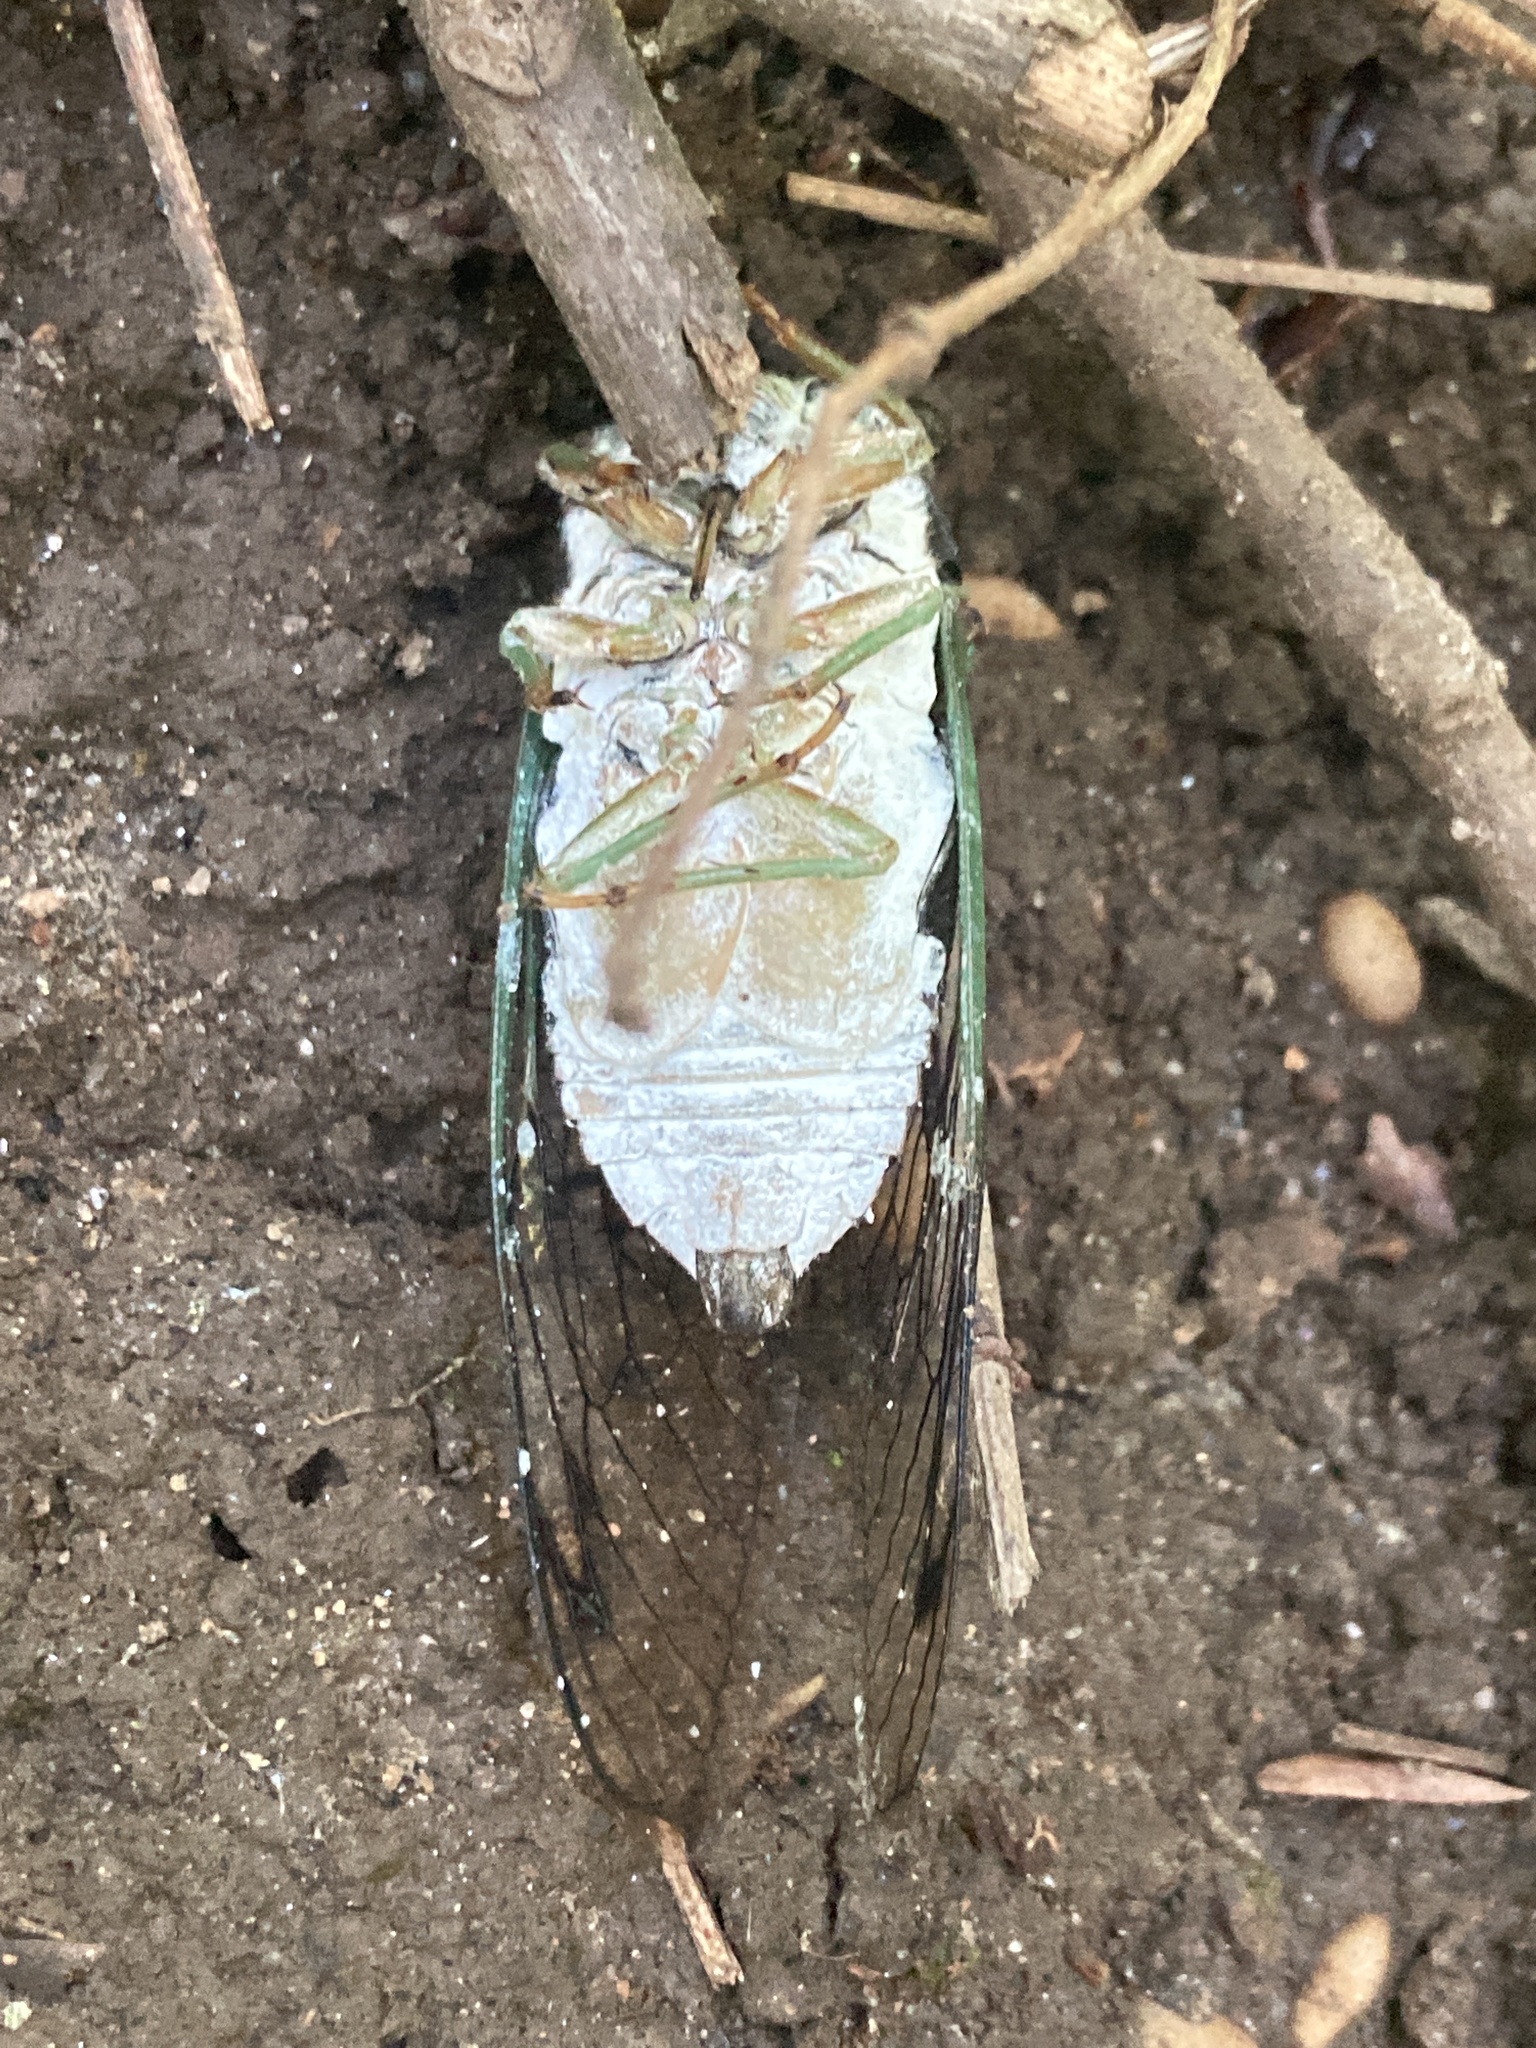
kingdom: Animalia
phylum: Arthropoda
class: Insecta
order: Hemiptera
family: Cicadidae
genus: Neotibicen
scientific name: Neotibicen tibicen
